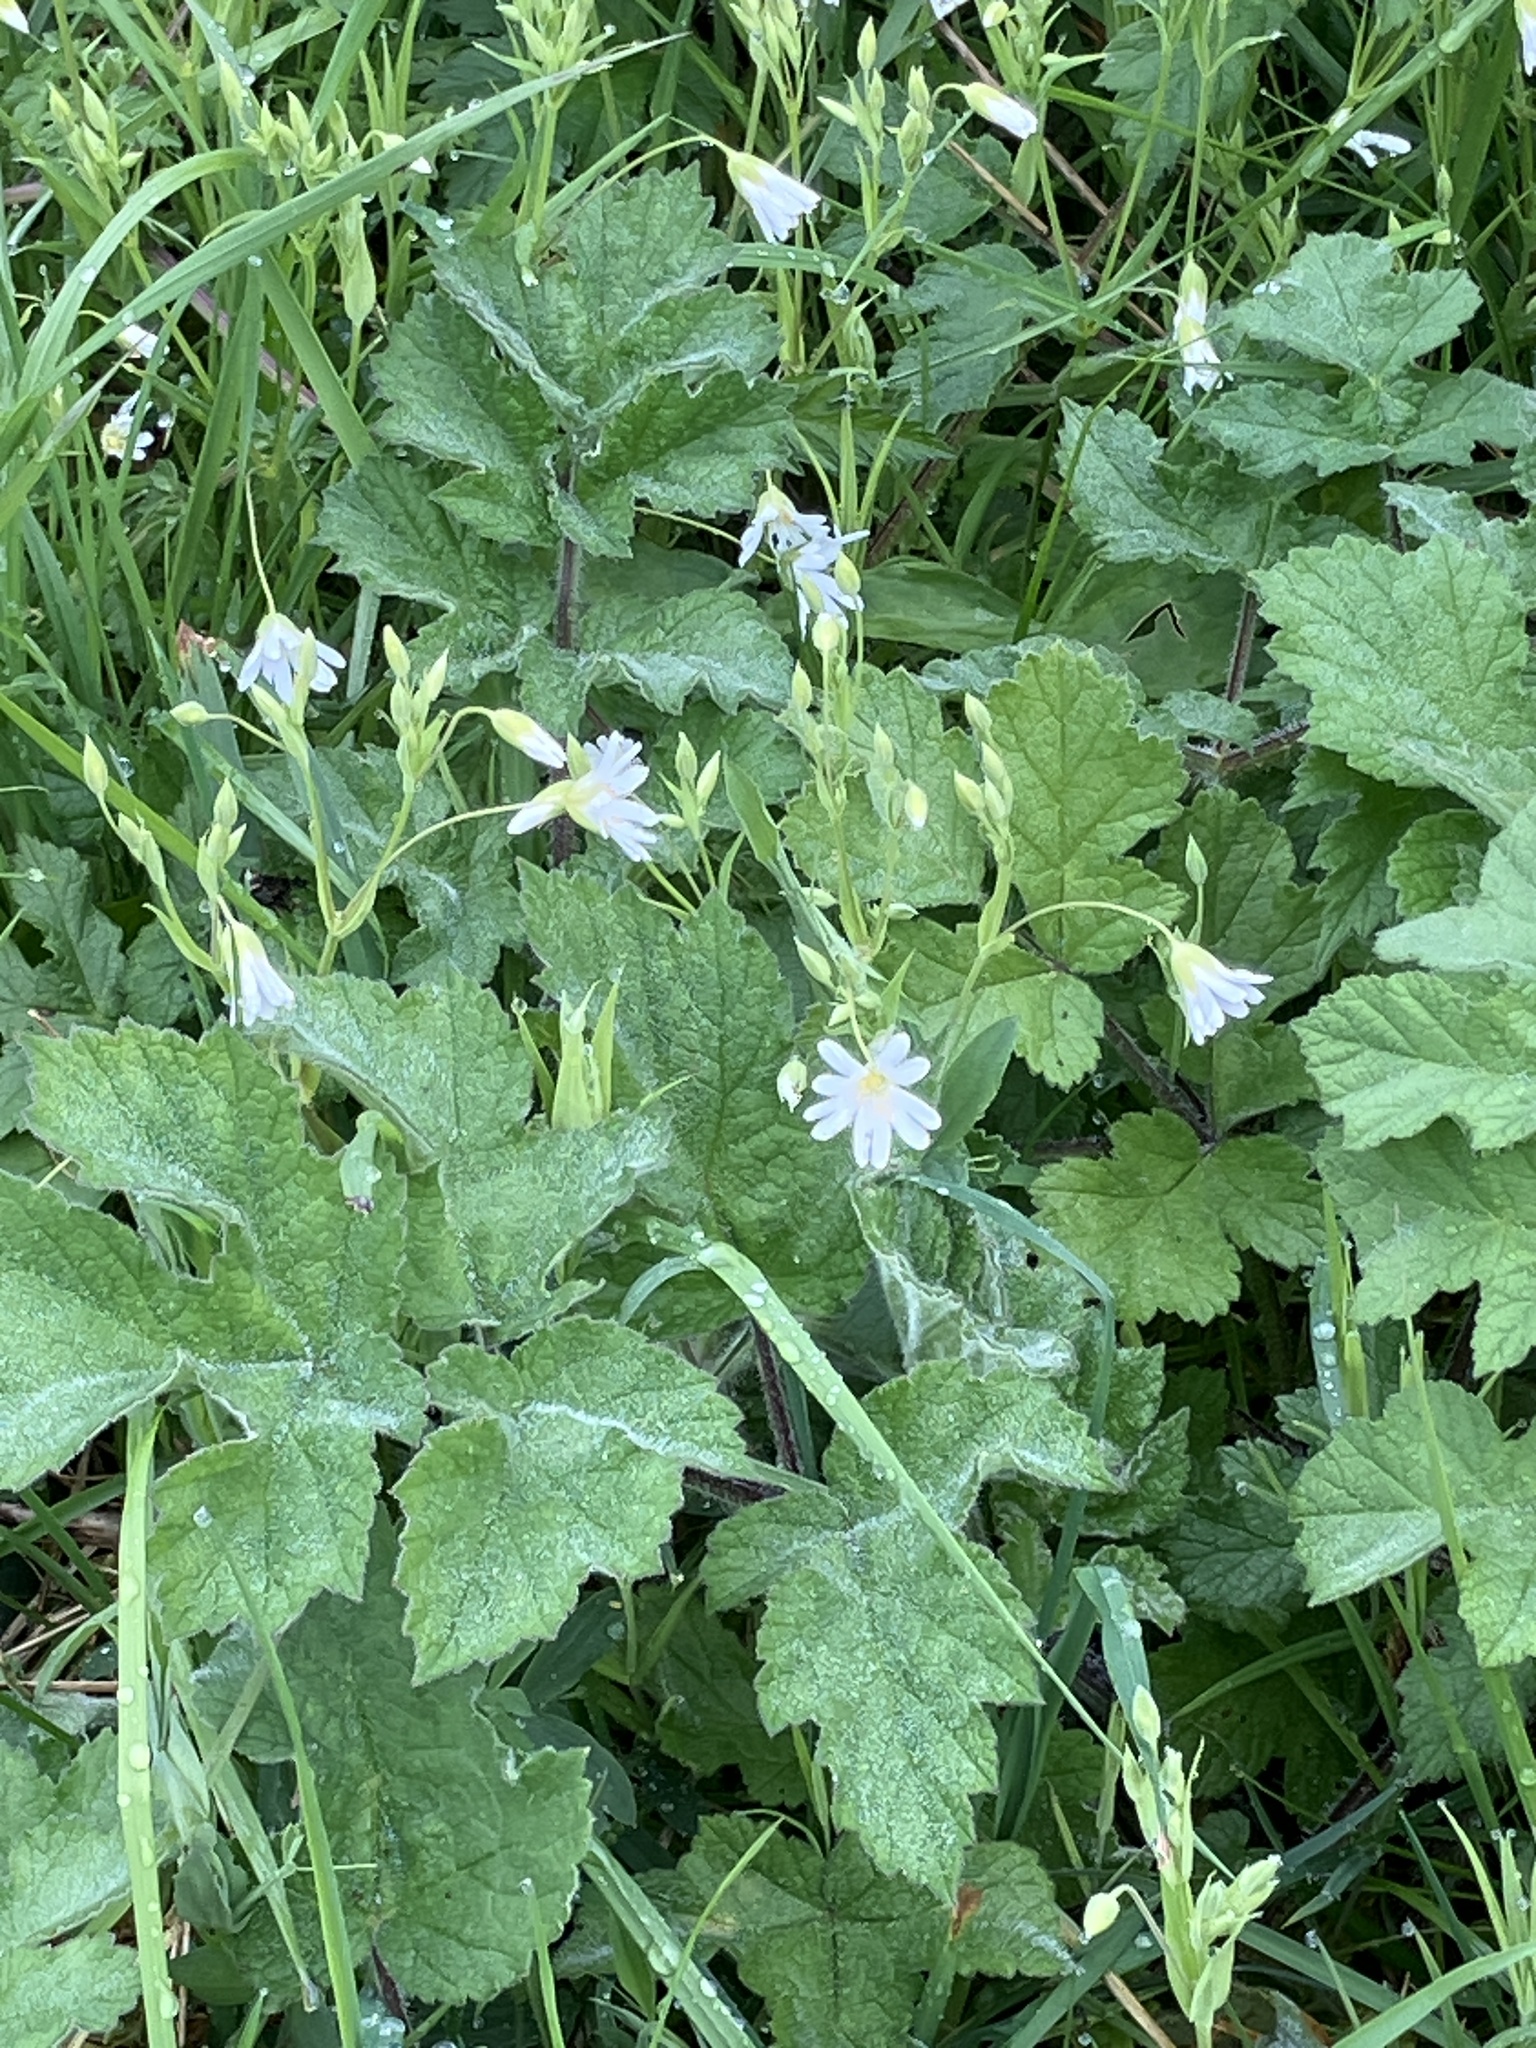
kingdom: Plantae
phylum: Tracheophyta
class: Magnoliopsida
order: Caryophyllales
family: Caryophyllaceae
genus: Rabelera
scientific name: Rabelera holostea
